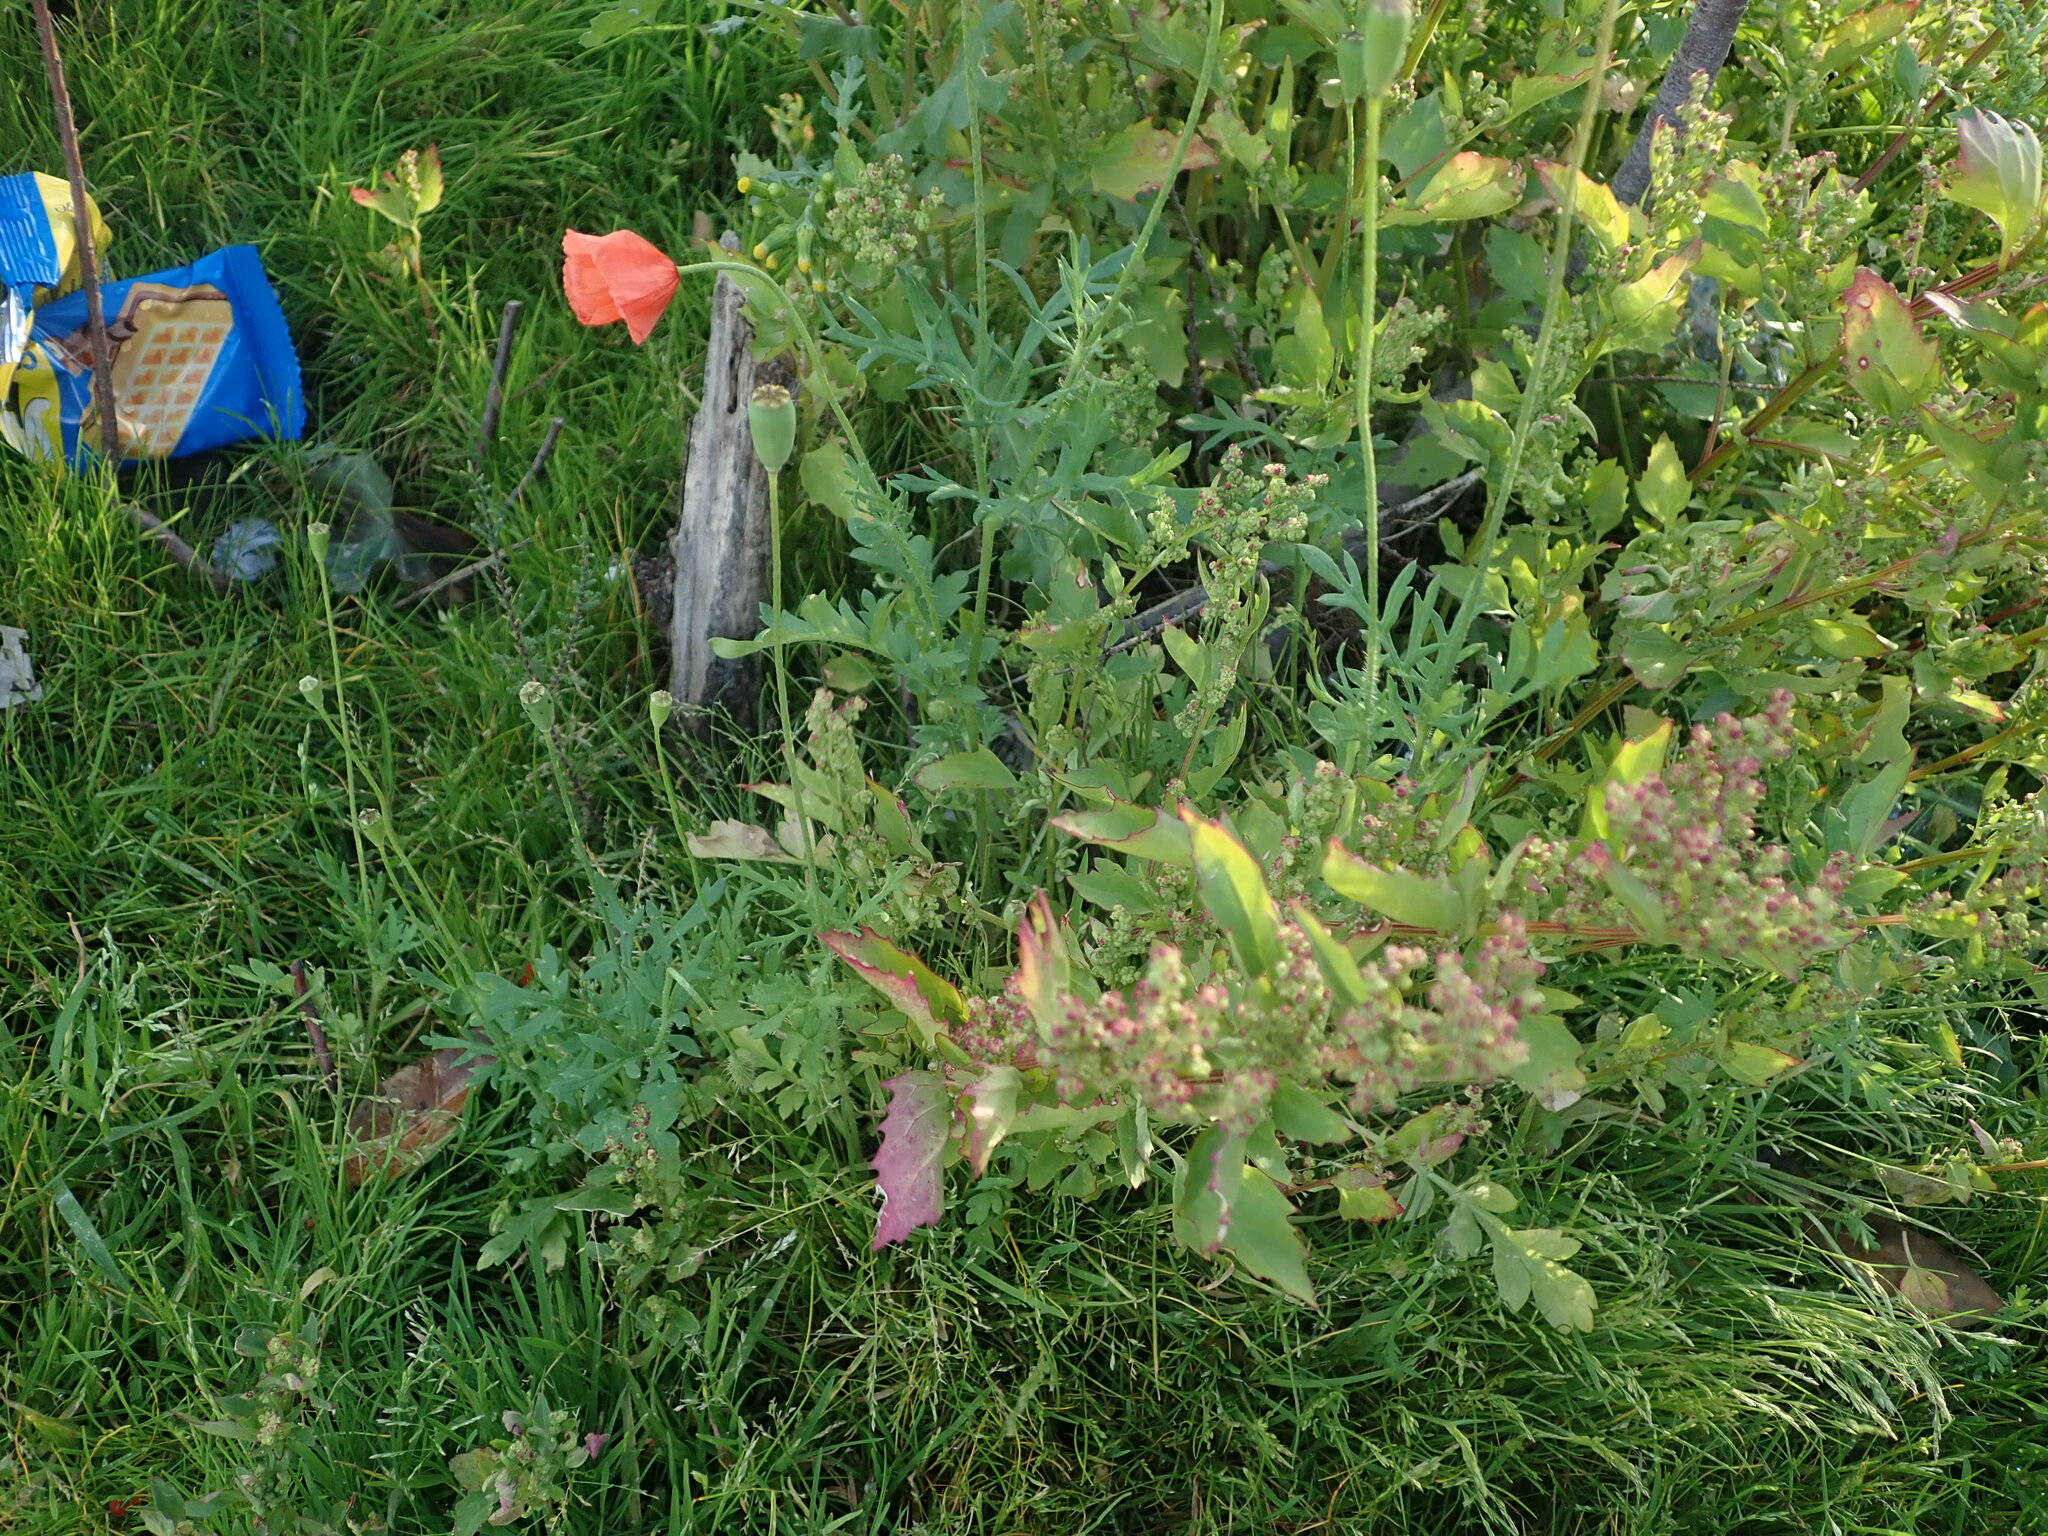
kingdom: Plantae
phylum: Tracheophyta
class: Magnoliopsida
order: Ranunculales
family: Papaveraceae
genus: Papaver
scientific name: Papaver dubium
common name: Long-headed poppy
